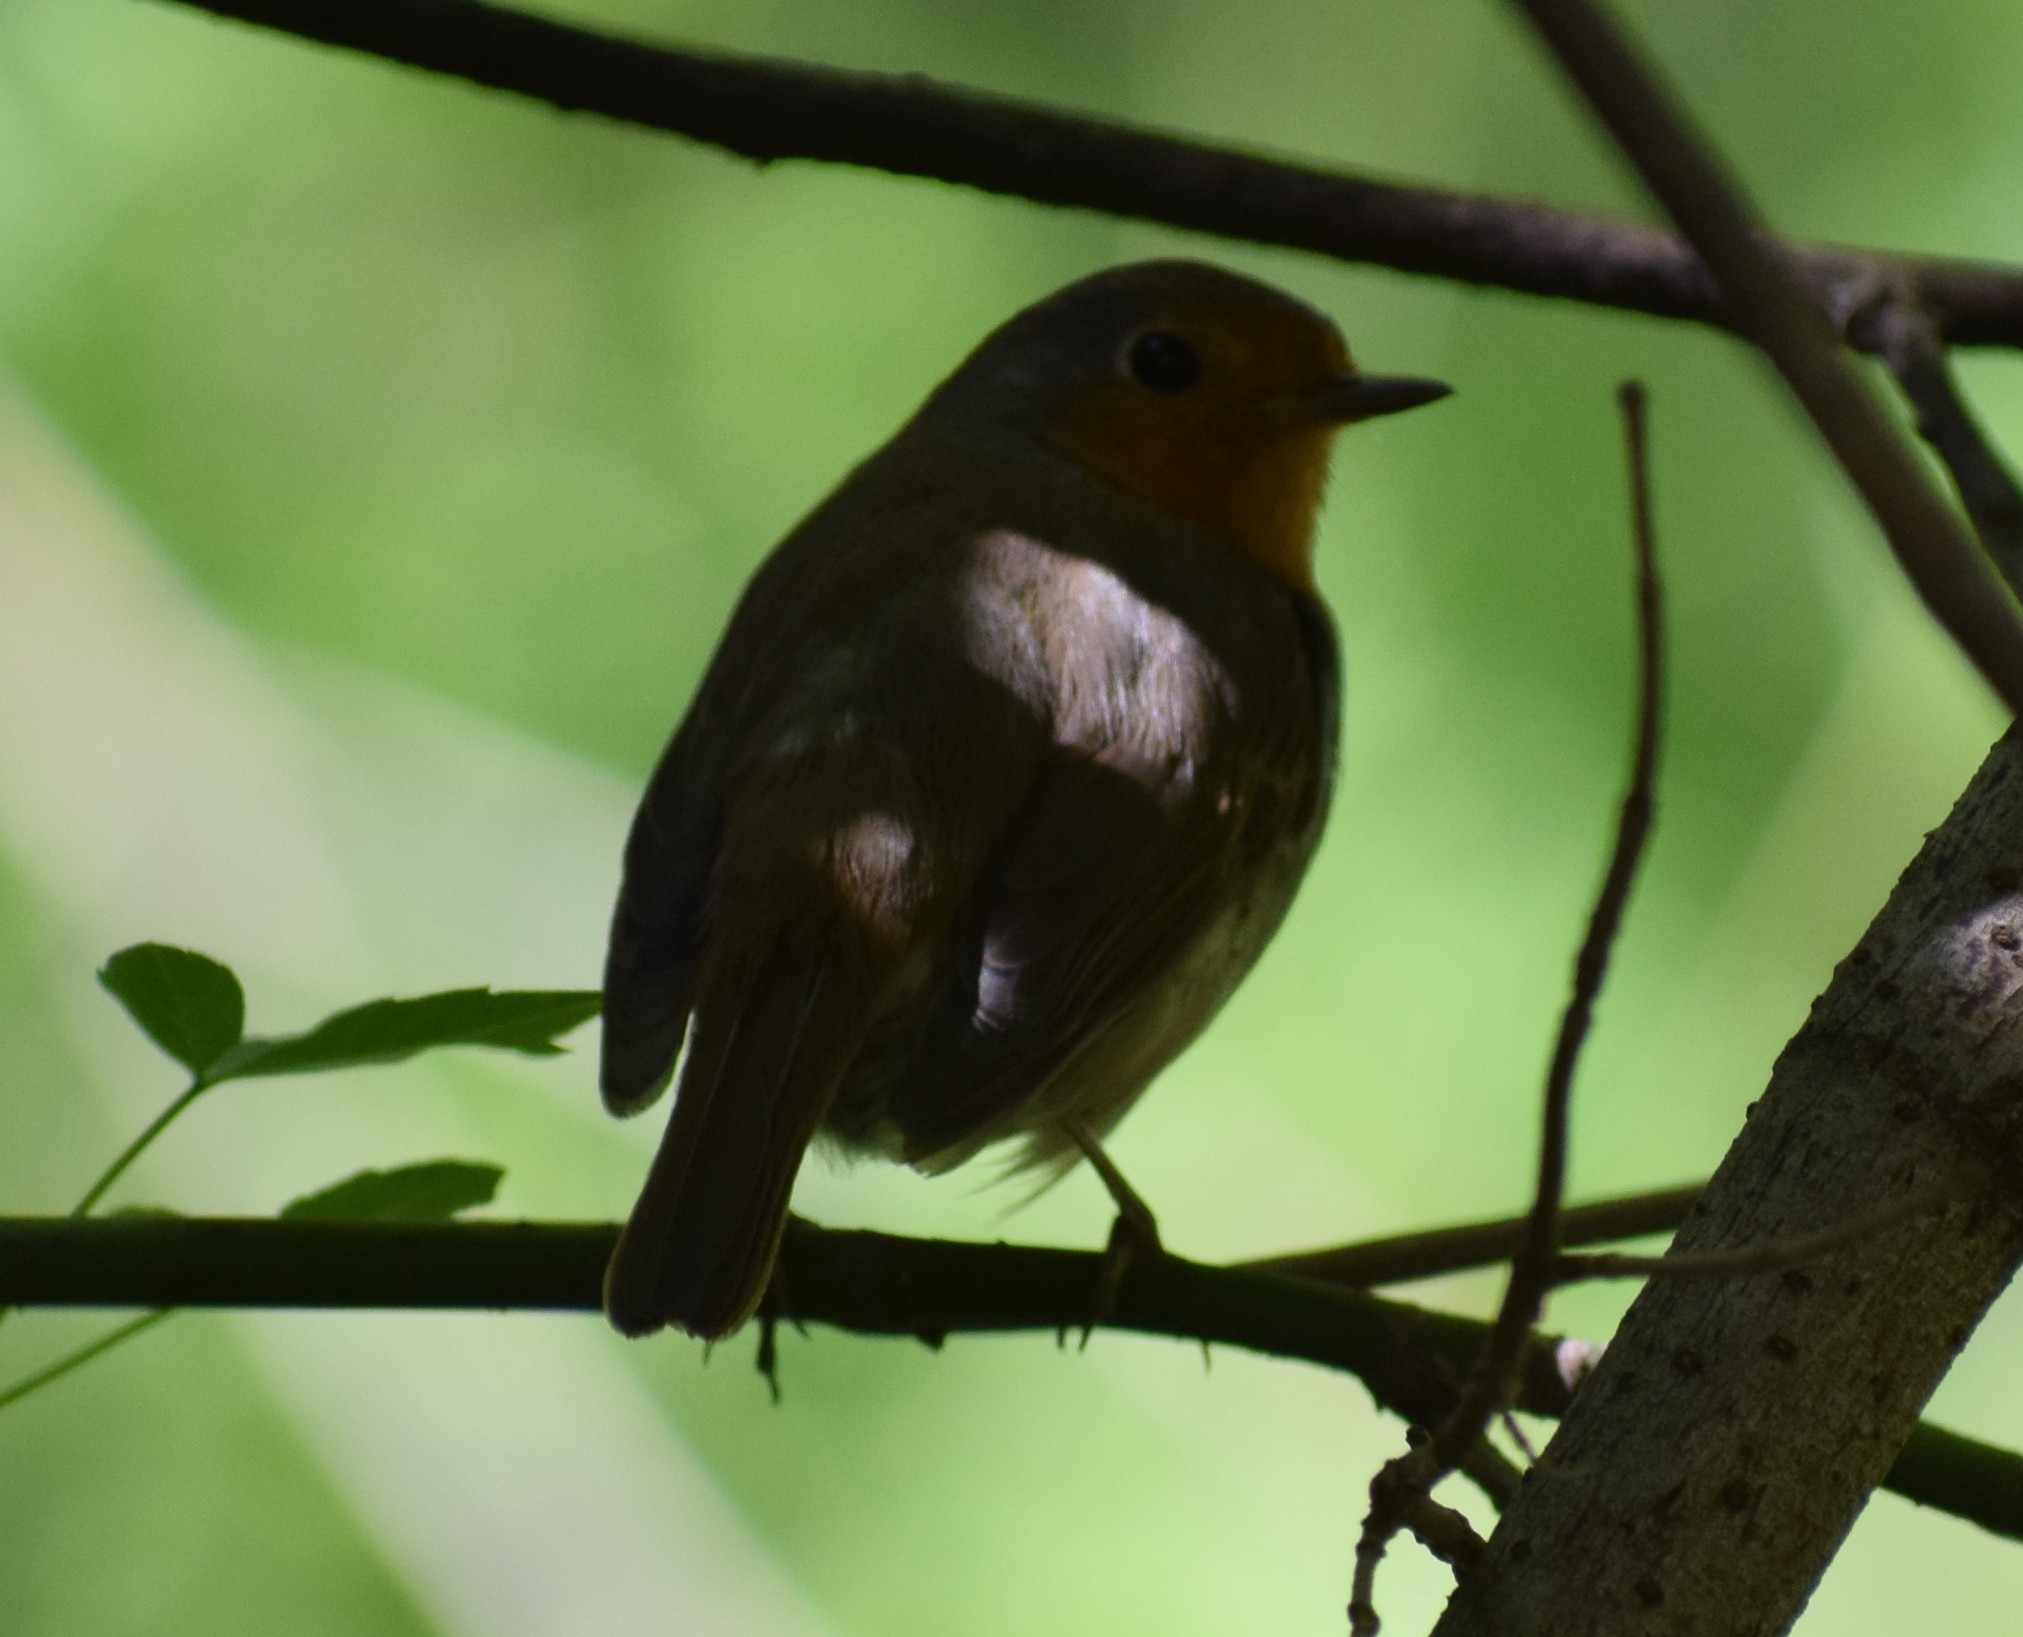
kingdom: Animalia
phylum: Chordata
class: Aves
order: Passeriformes
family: Muscicapidae
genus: Erithacus
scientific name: Erithacus rubecula
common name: European robin
